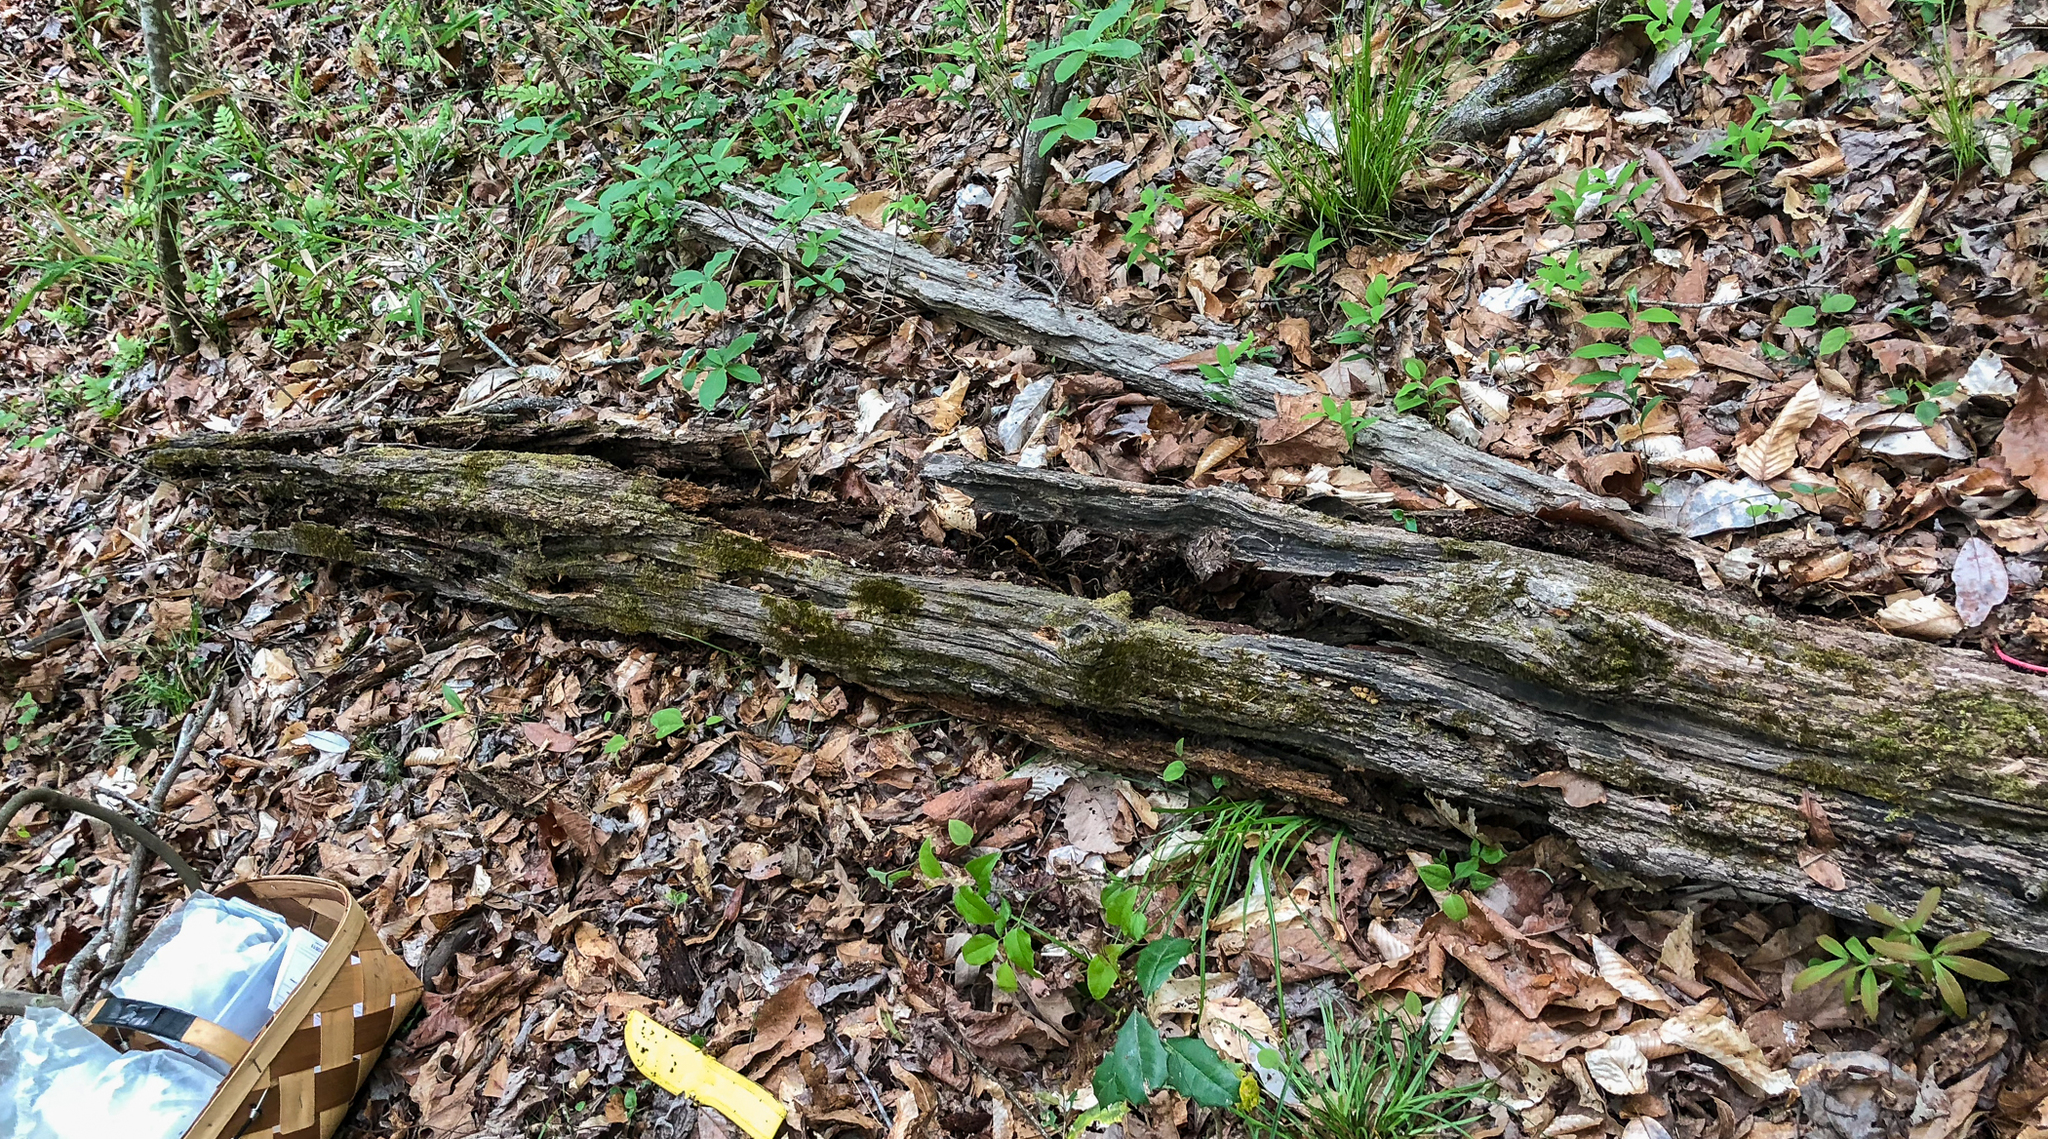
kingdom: Fungi
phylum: Basidiomycota
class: Agaricomycetes
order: Russulales
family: Stereaceae
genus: Xylobolus
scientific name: Xylobolus frustulatus
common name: Ceramic parchment
